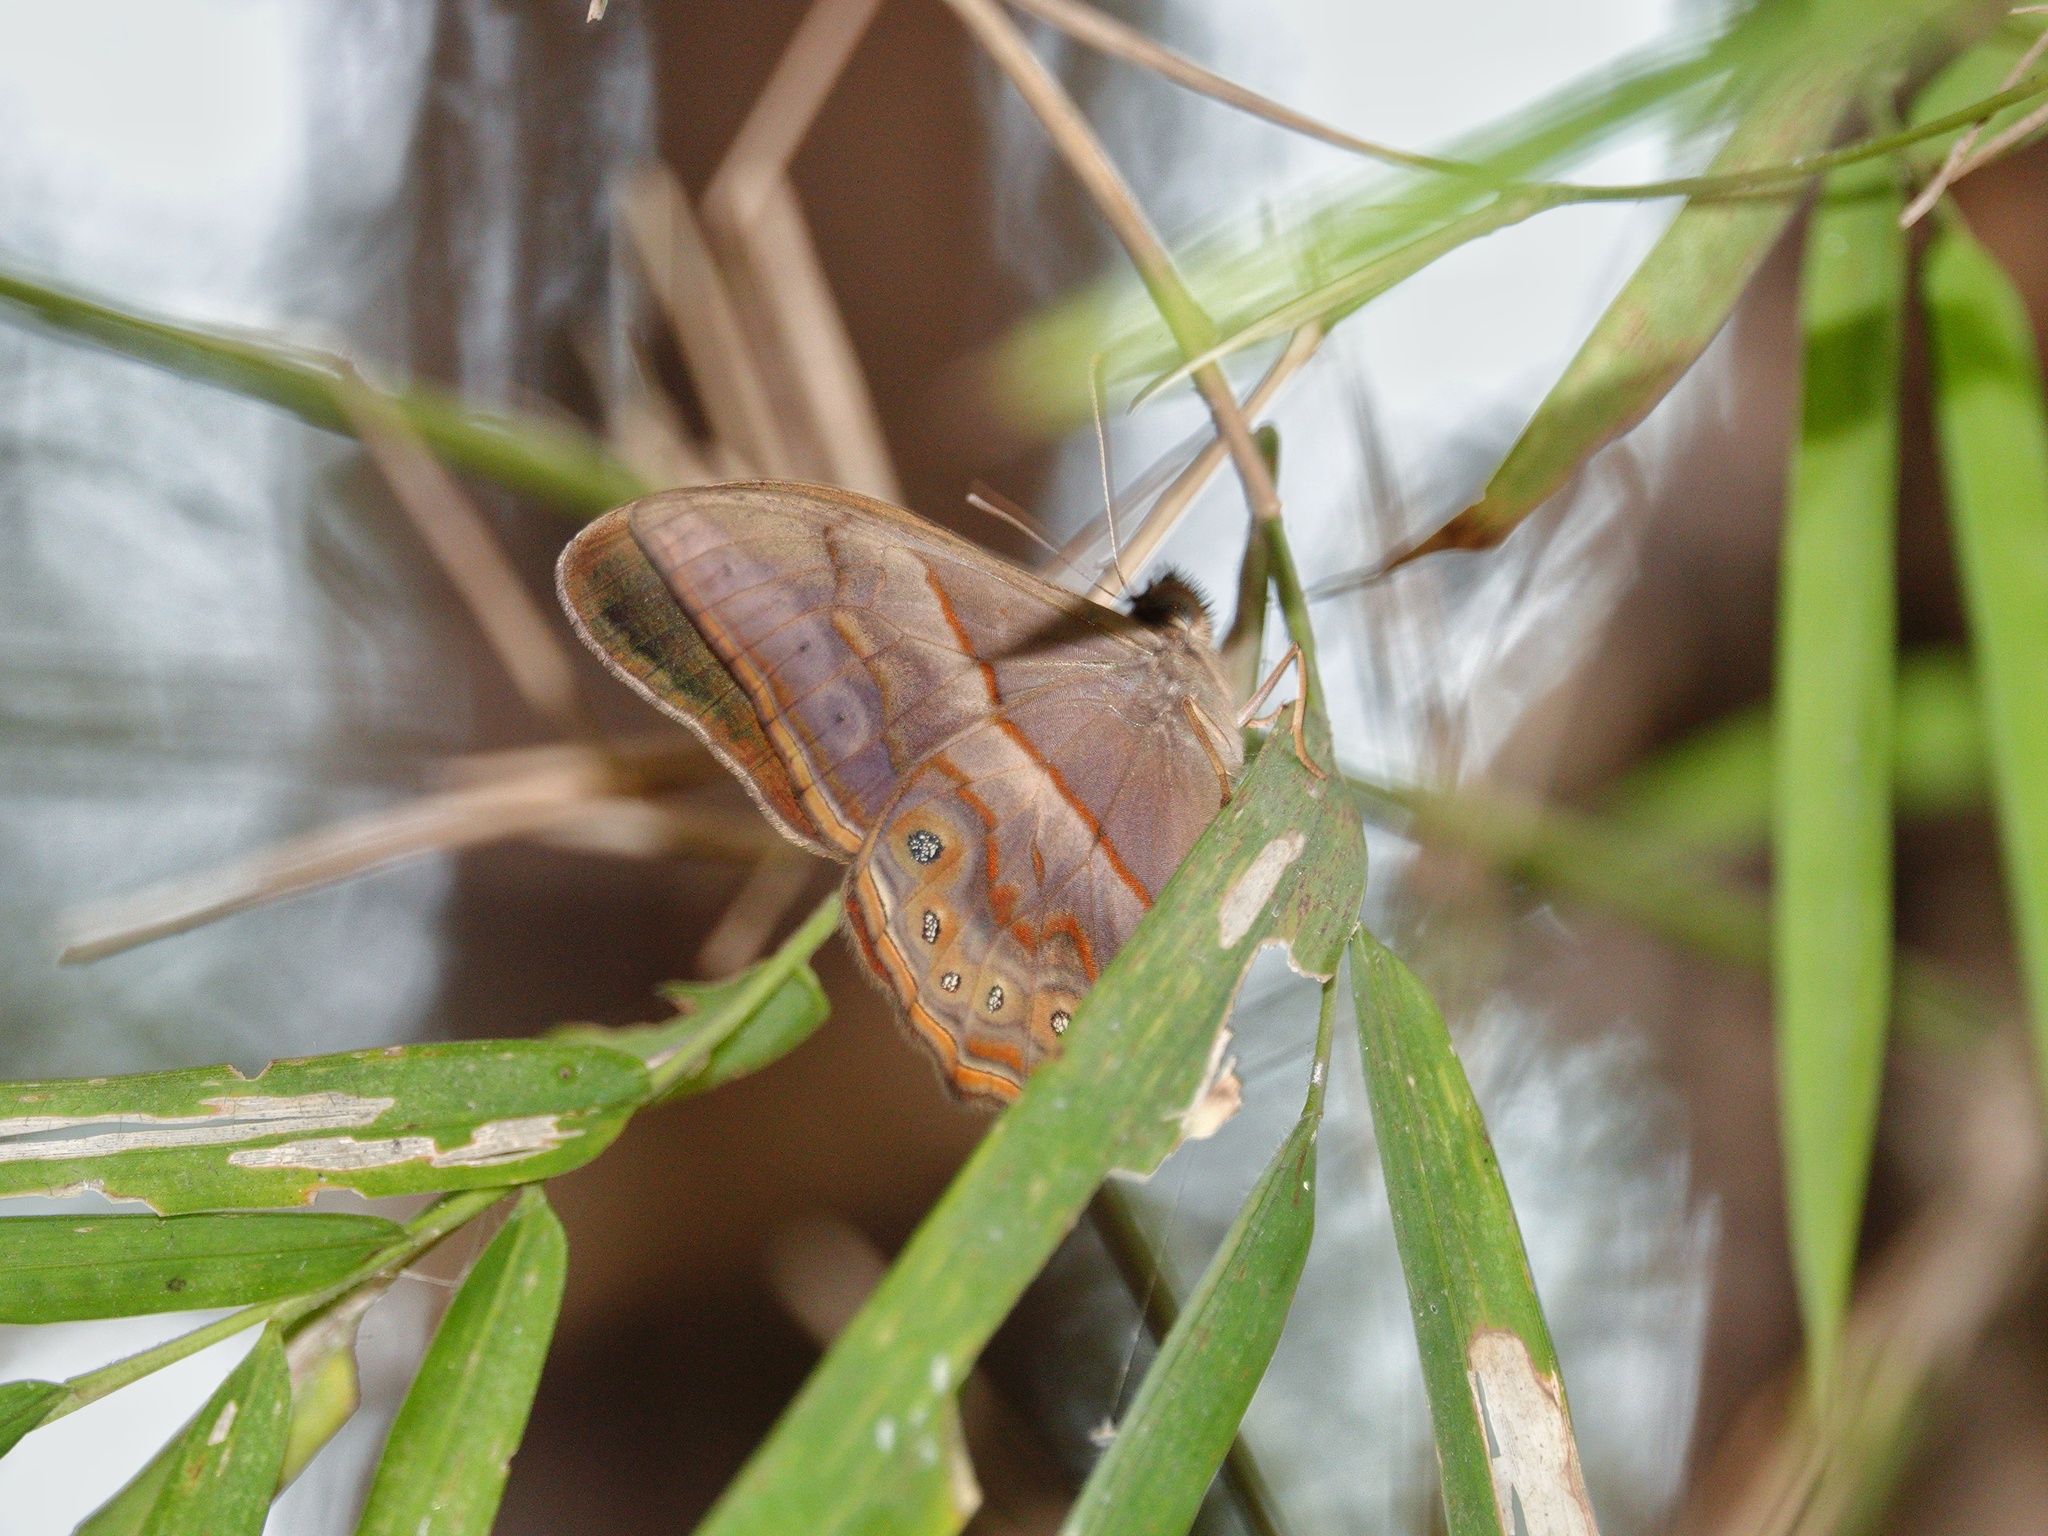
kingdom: Animalia
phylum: Arthropoda
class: Insecta
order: Lepidoptera
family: Nymphalidae
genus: Lethe
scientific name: Lethe minerva
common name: Banded red forester
